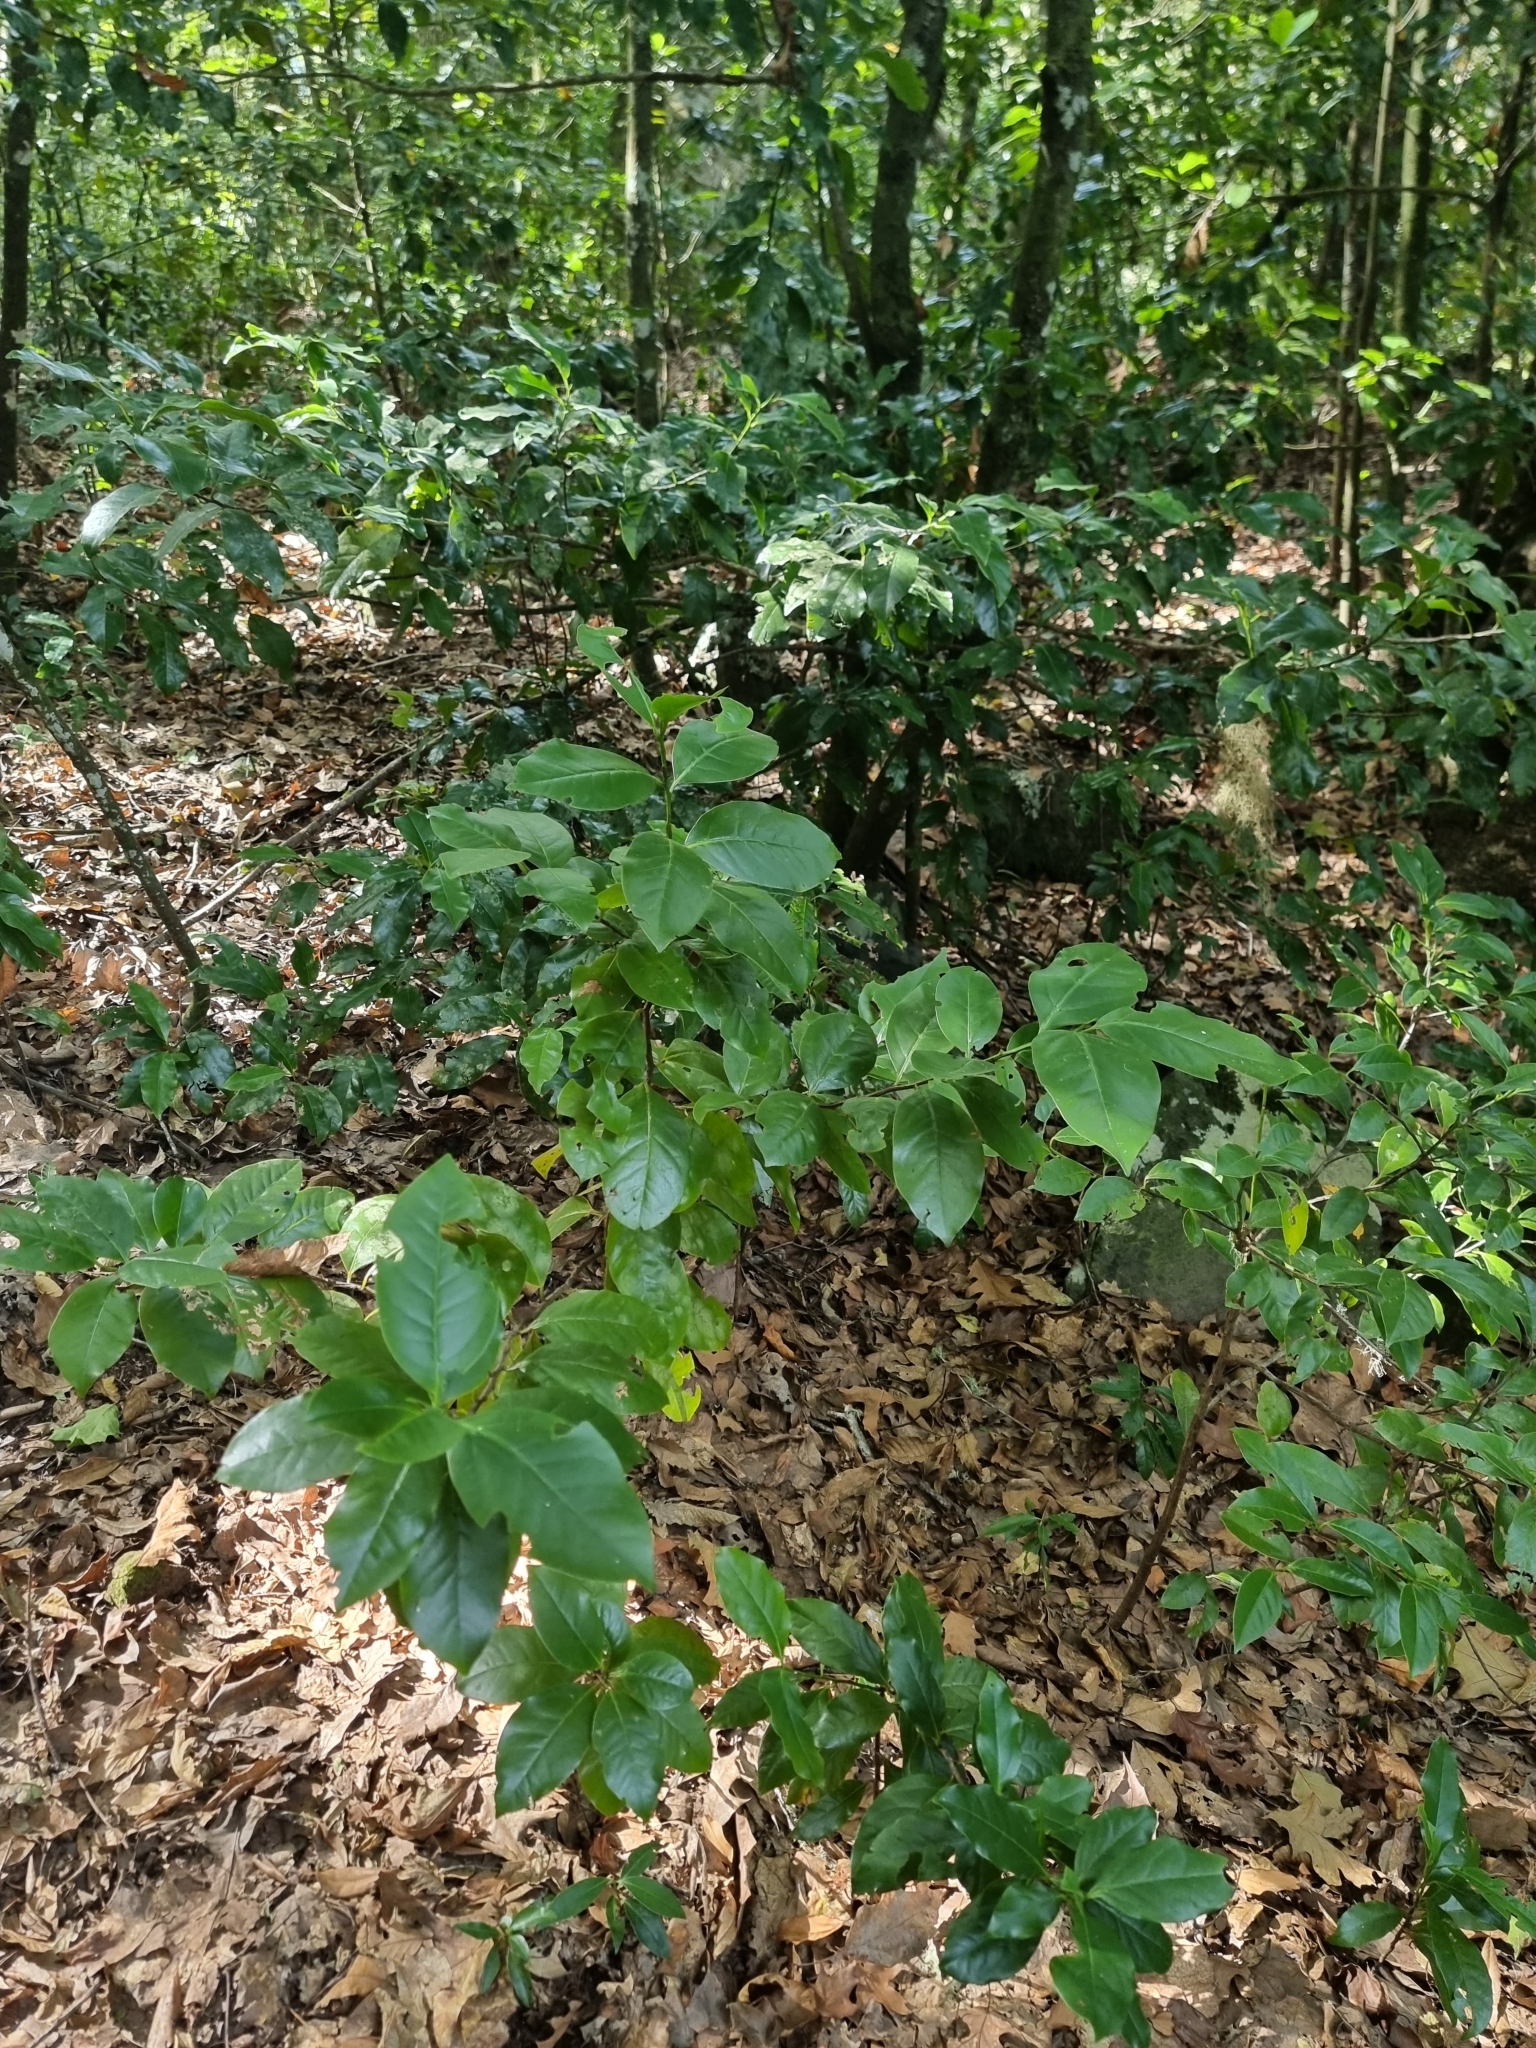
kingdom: Plantae
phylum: Tracheophyta
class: Magnoliopsida
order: Laurales
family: Lauraceae
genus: Mespilodaphne
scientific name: Mespilodaphne foetens
